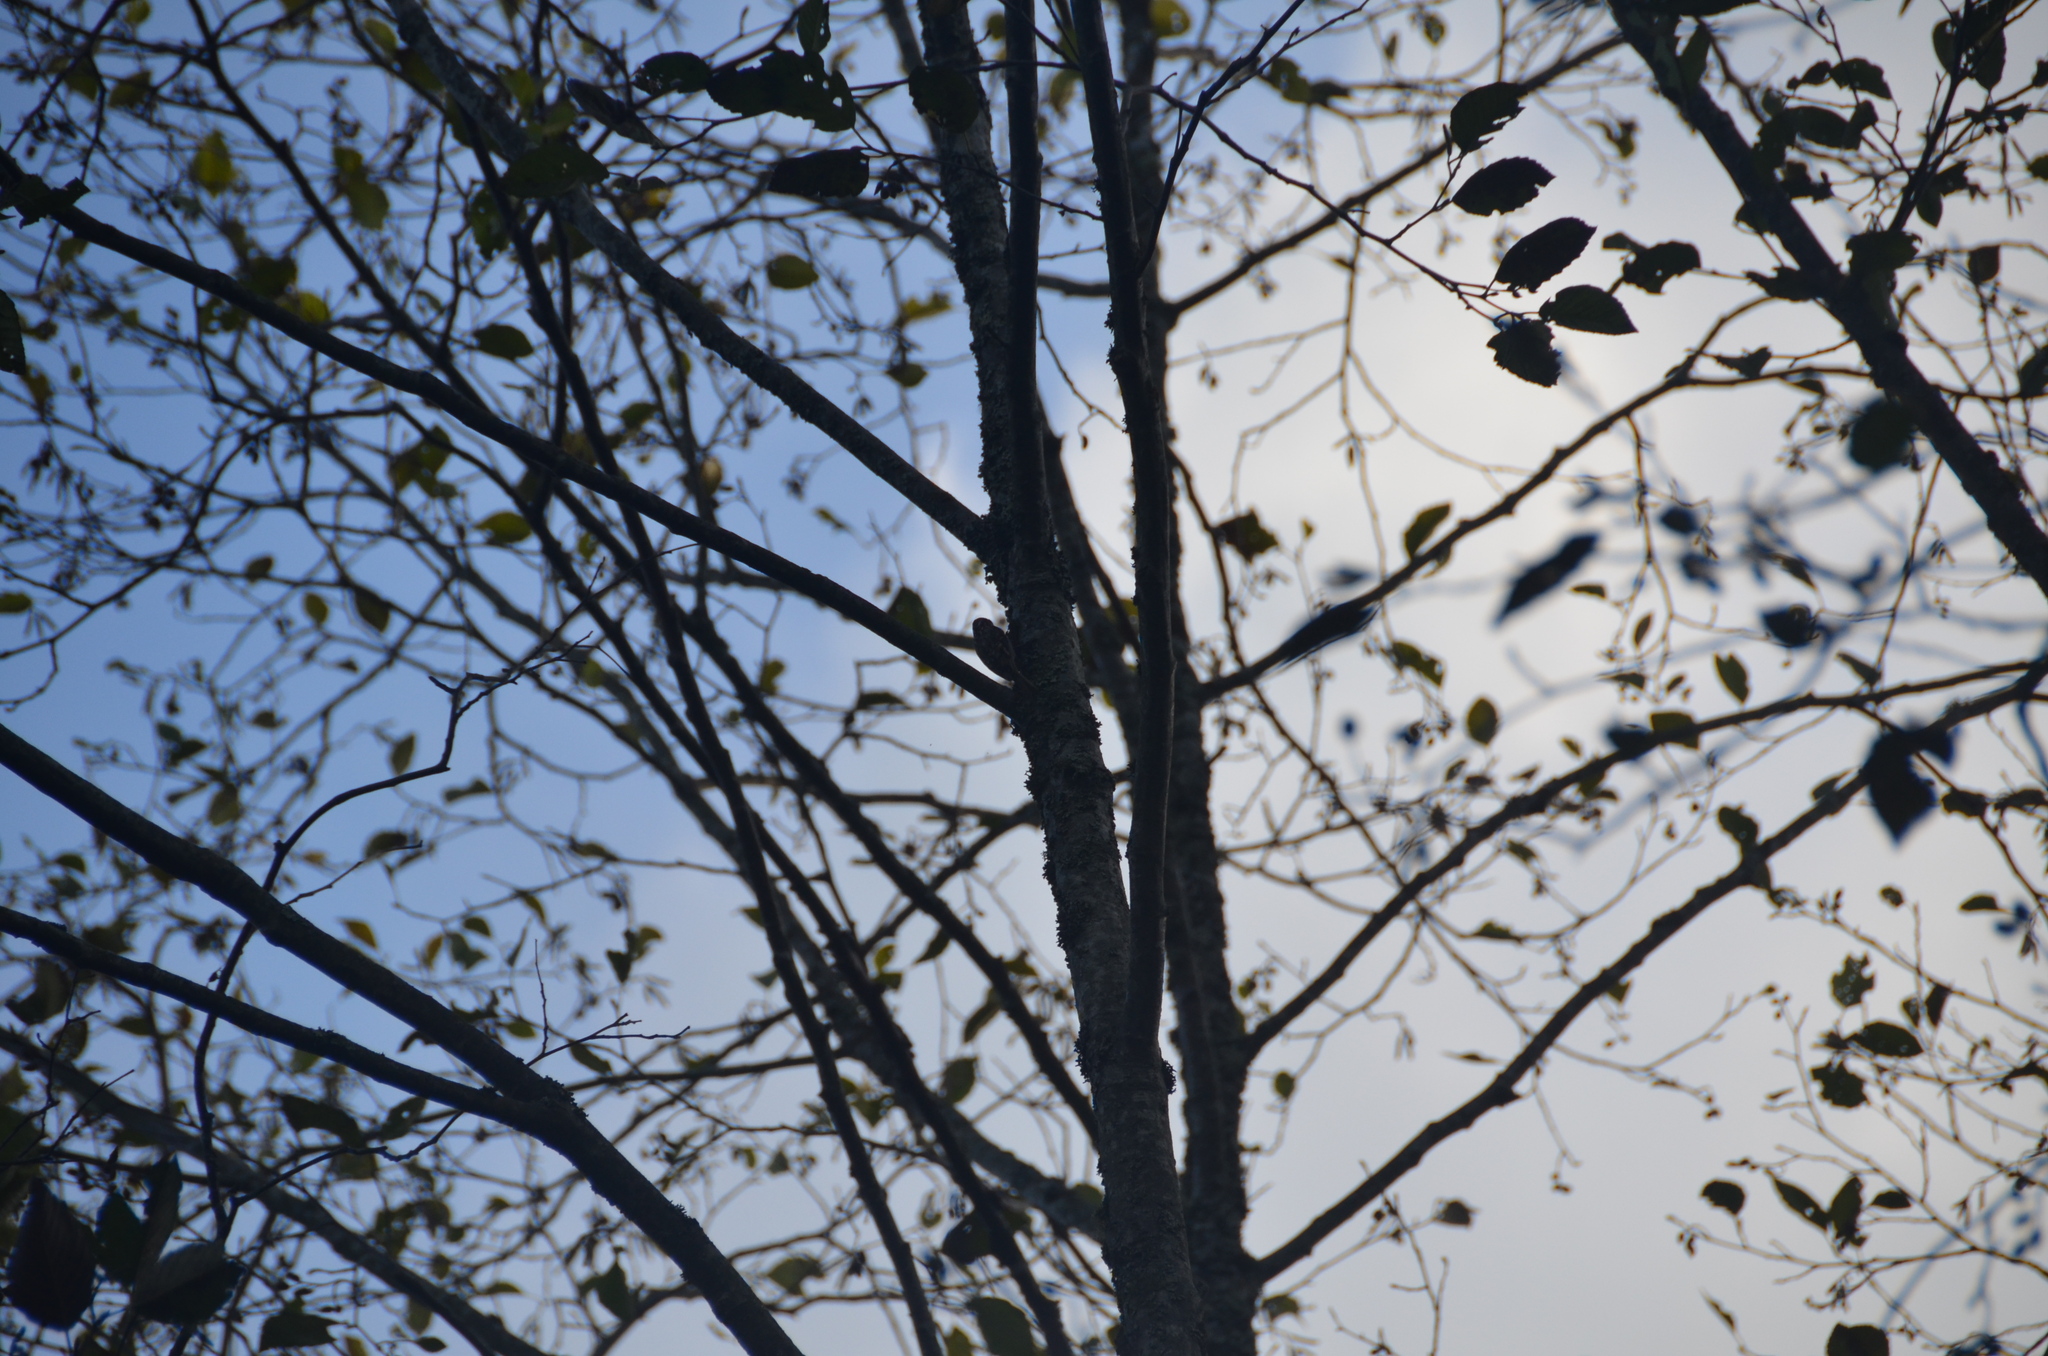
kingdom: Animalia
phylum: Chordata
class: Aves
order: Passeriformes
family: Certhiidae
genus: Certhia
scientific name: Certhia americana
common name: Brown creeper
